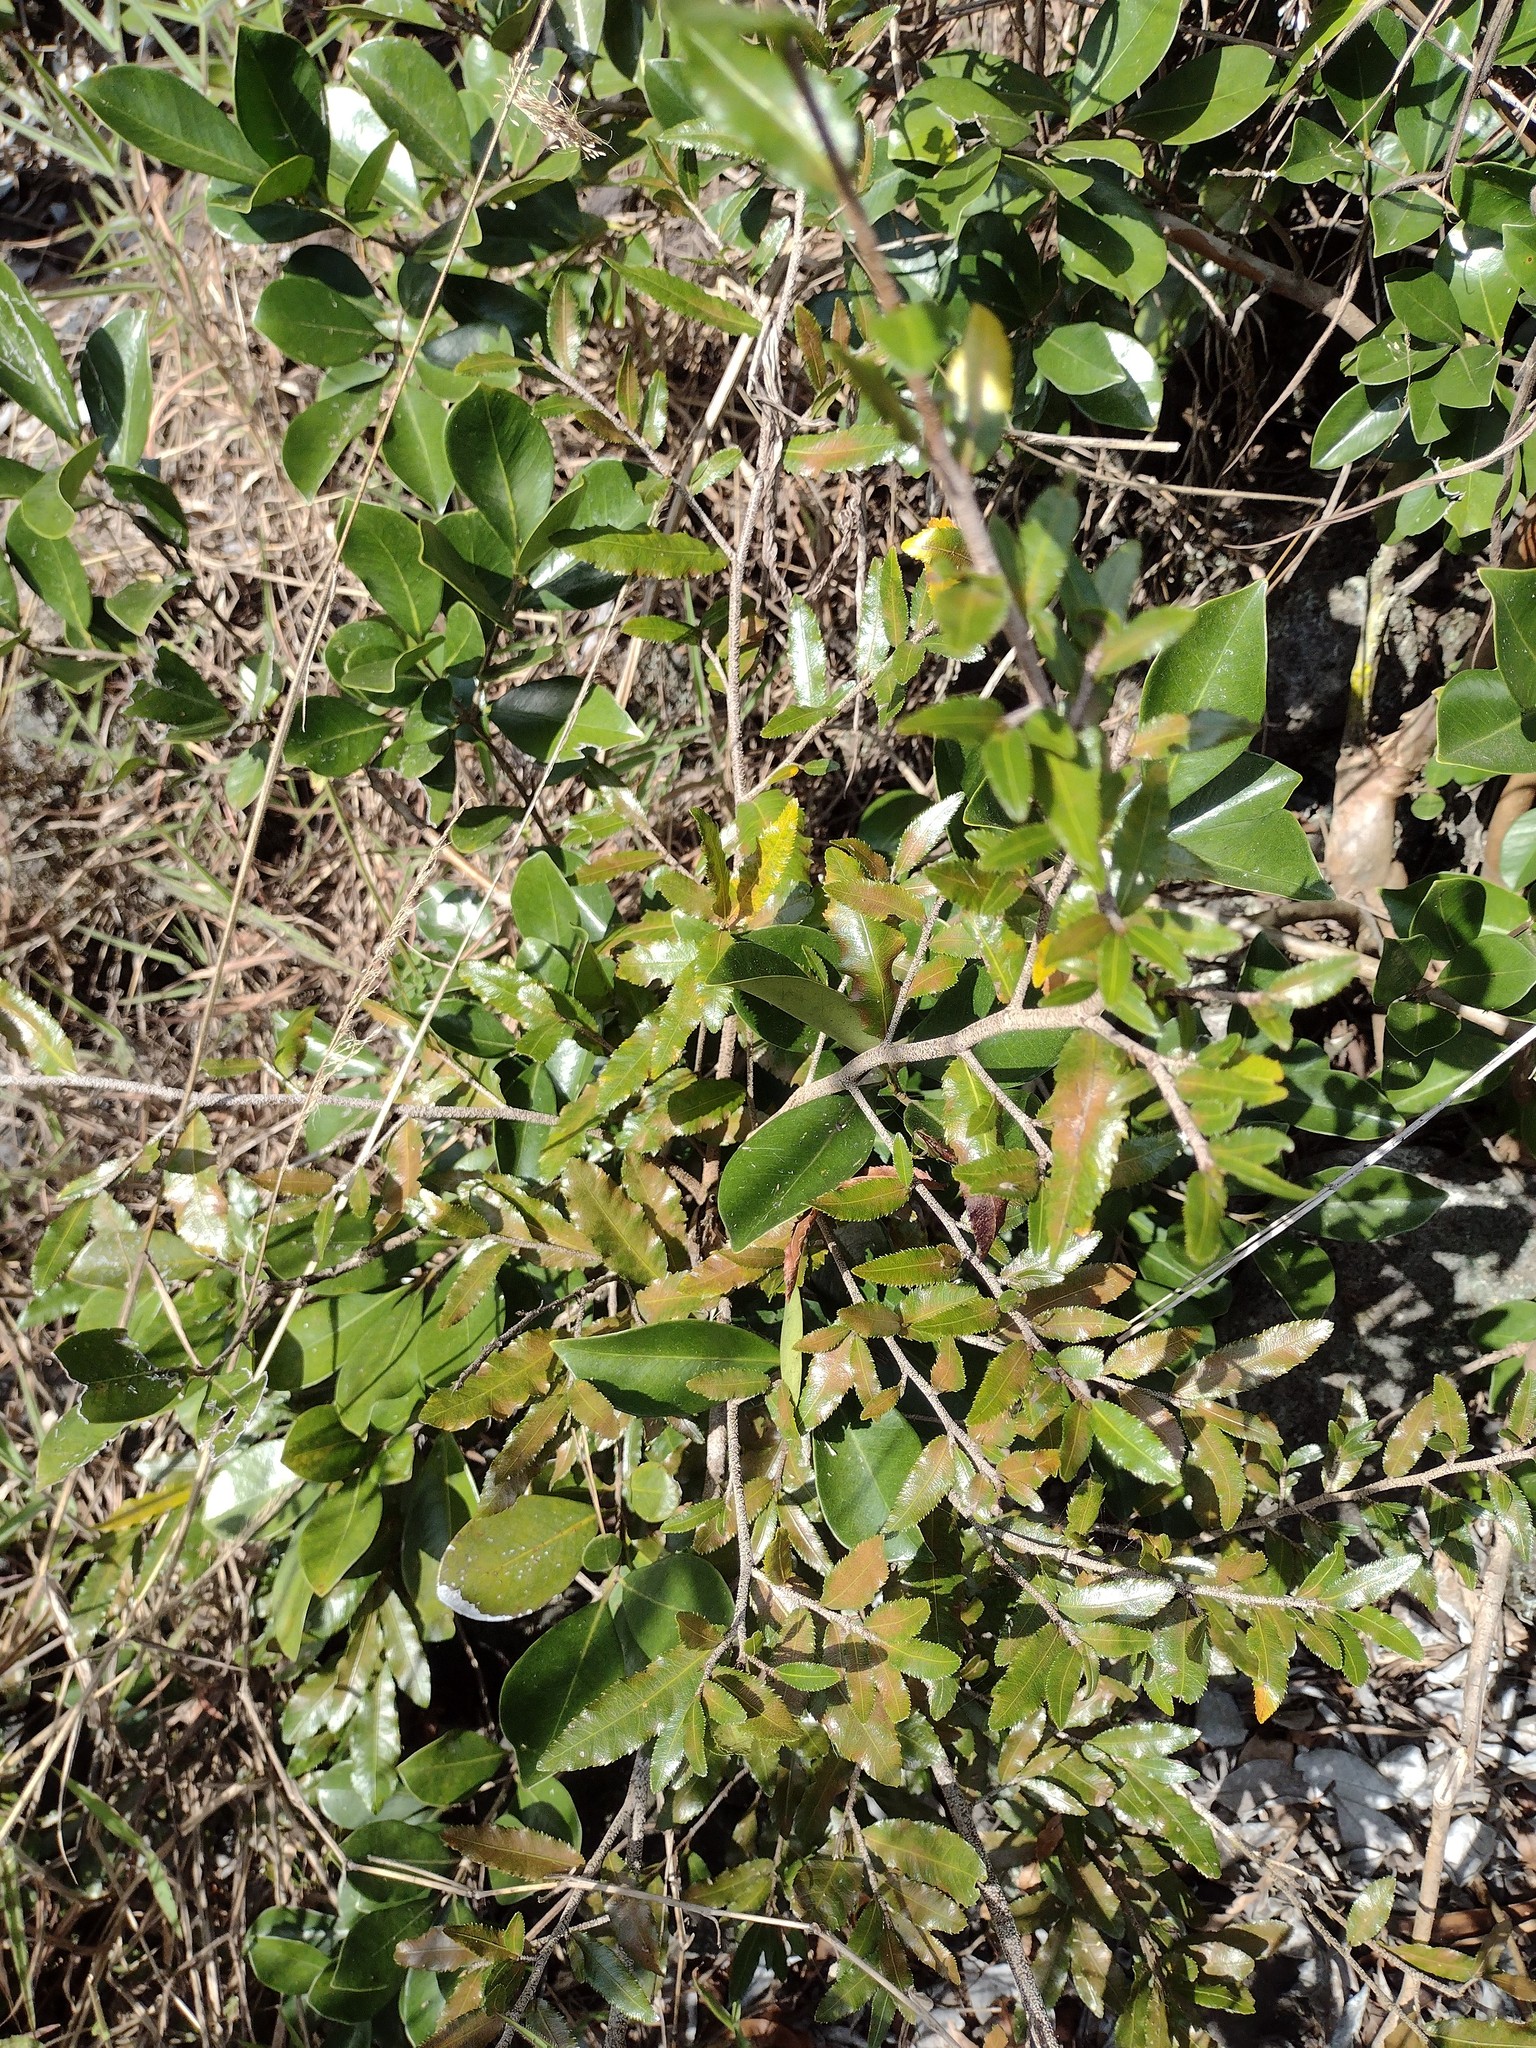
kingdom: Plantae
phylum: Tracheophyta
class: Magnoliopsida
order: Malpighiales
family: Ochnaceae
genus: Ochna
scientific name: Ochna serrulata
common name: Mickey mouse plant
